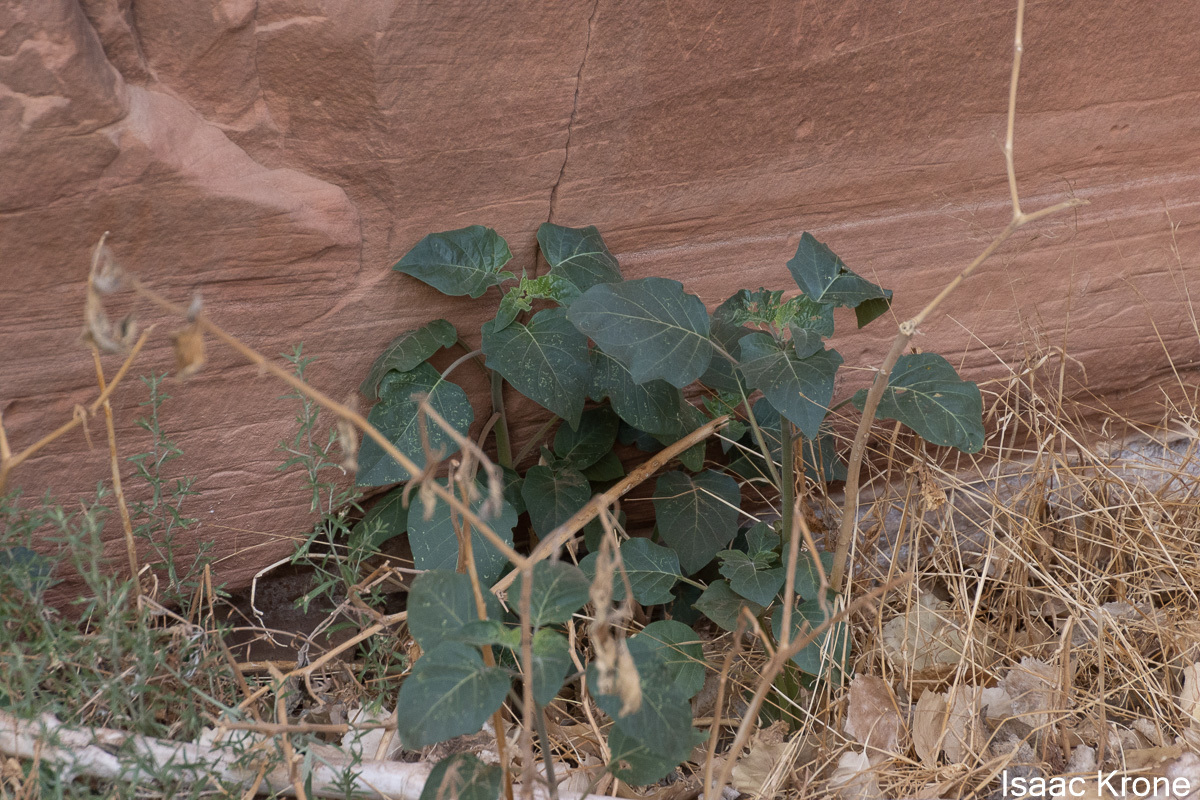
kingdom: Plantae
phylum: Tracheophyta
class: Magnoliopsida
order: Solanales
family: Solanaceae
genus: Datura
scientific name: Datura wrightii
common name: Sacred thorn-apple
